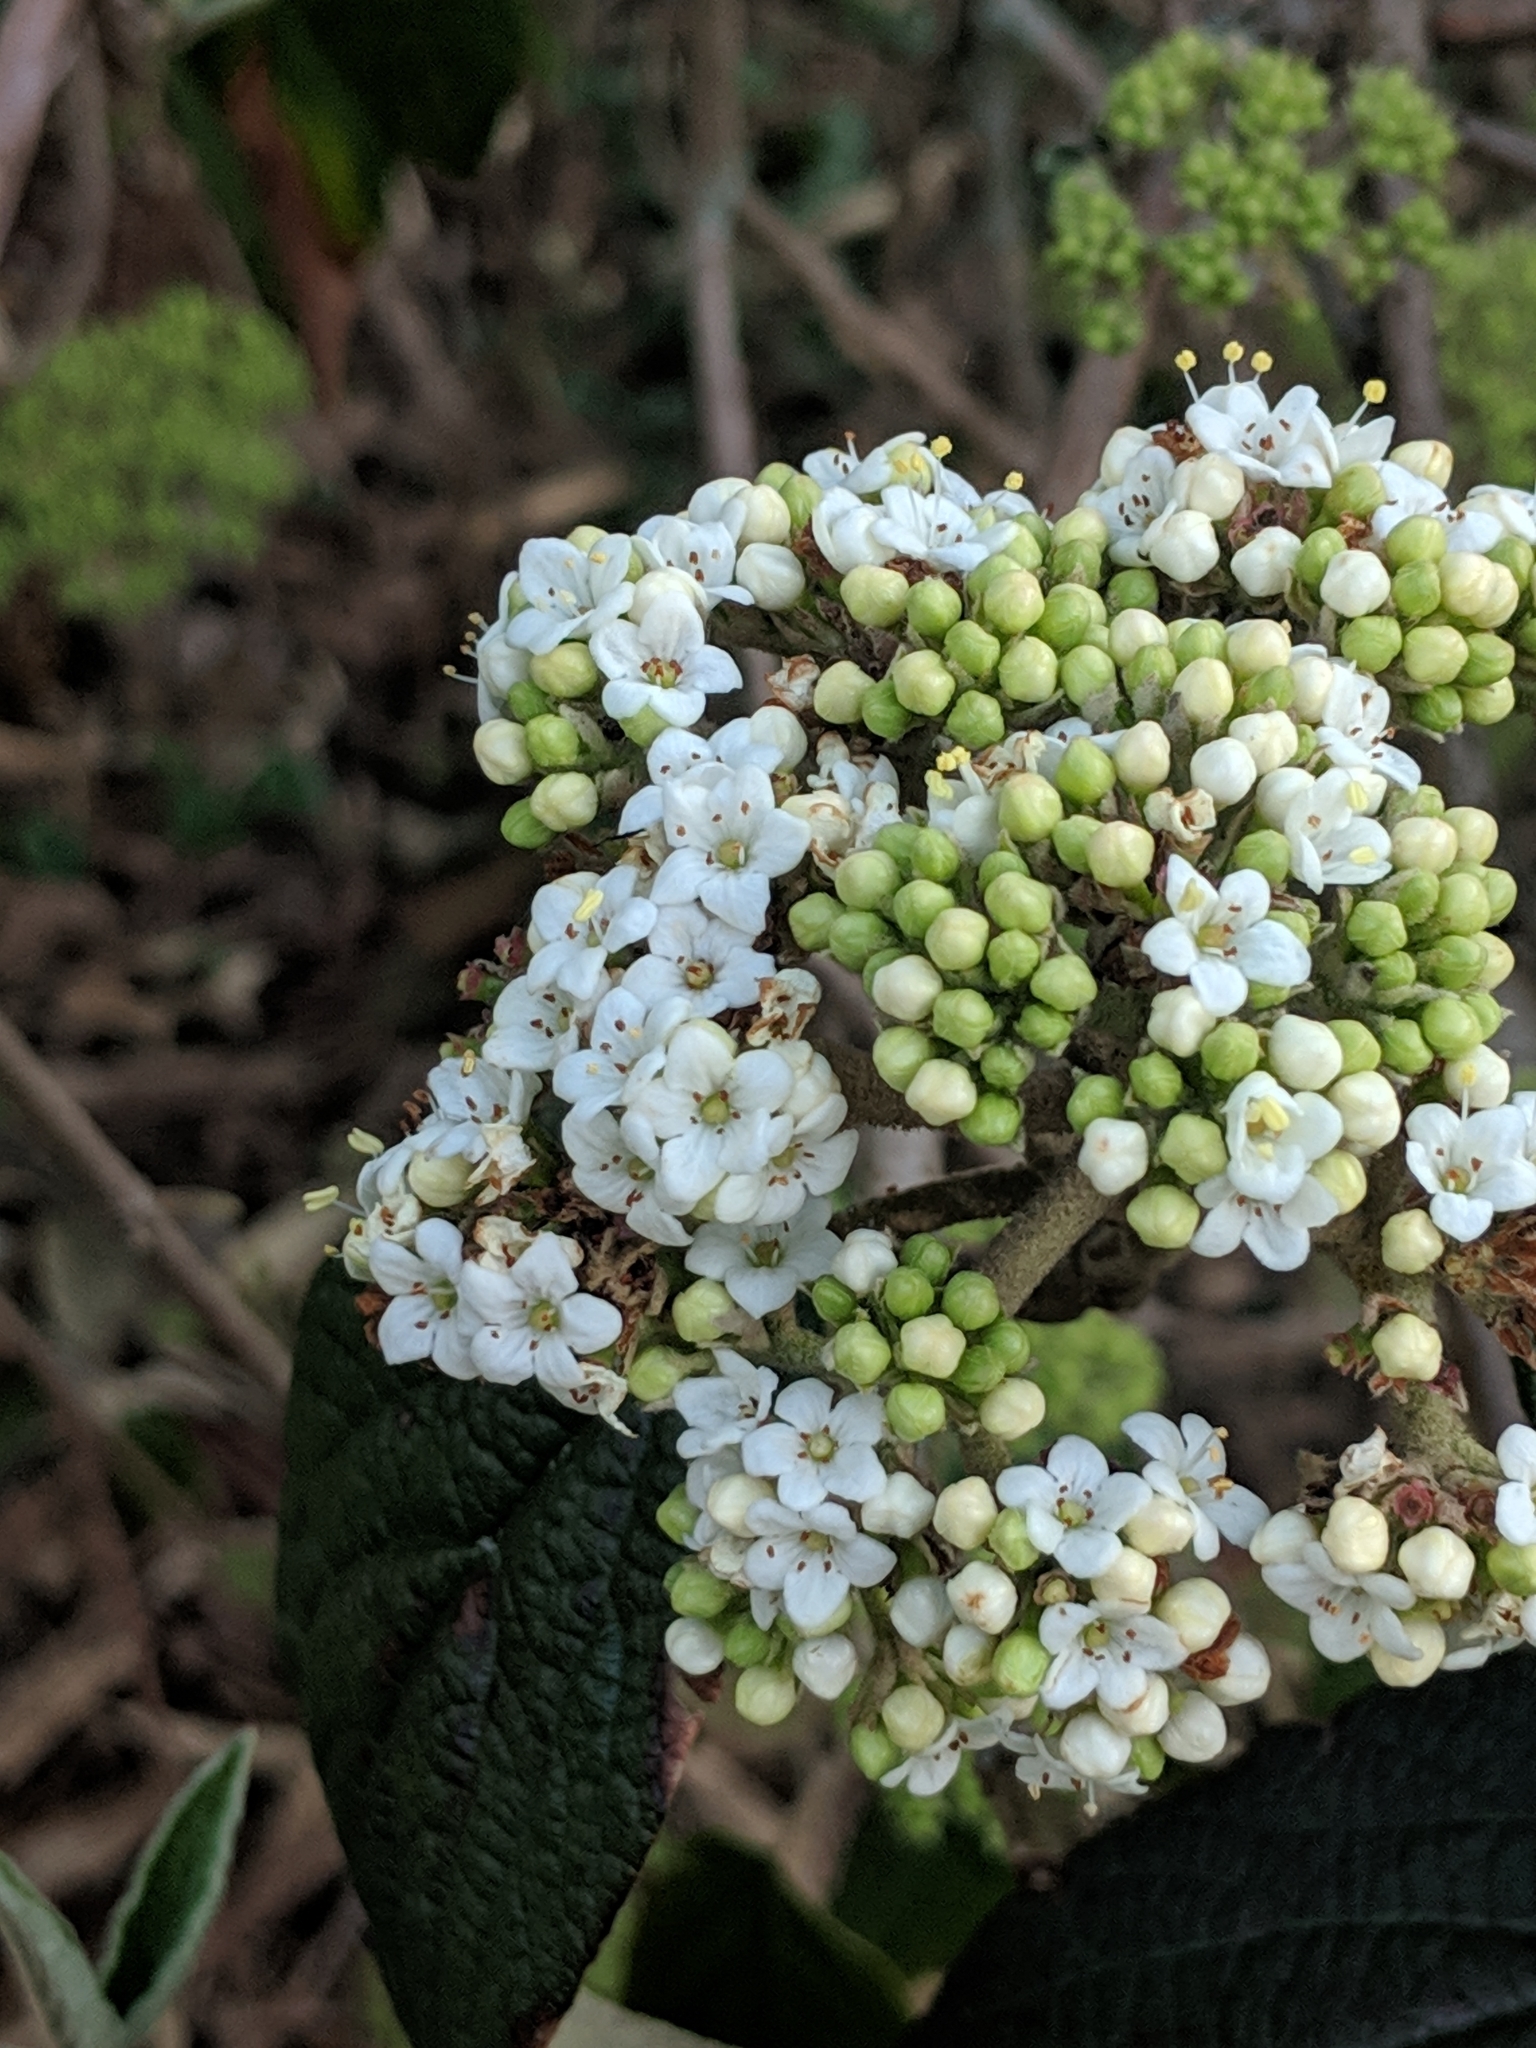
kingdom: Plantae
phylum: Tracheophyta
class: Magnoliopsida
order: Dipsacales
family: Viburnaceae
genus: Viburnum
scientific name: Viburnum rhytidophyllum
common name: Wrinkled viburnum
